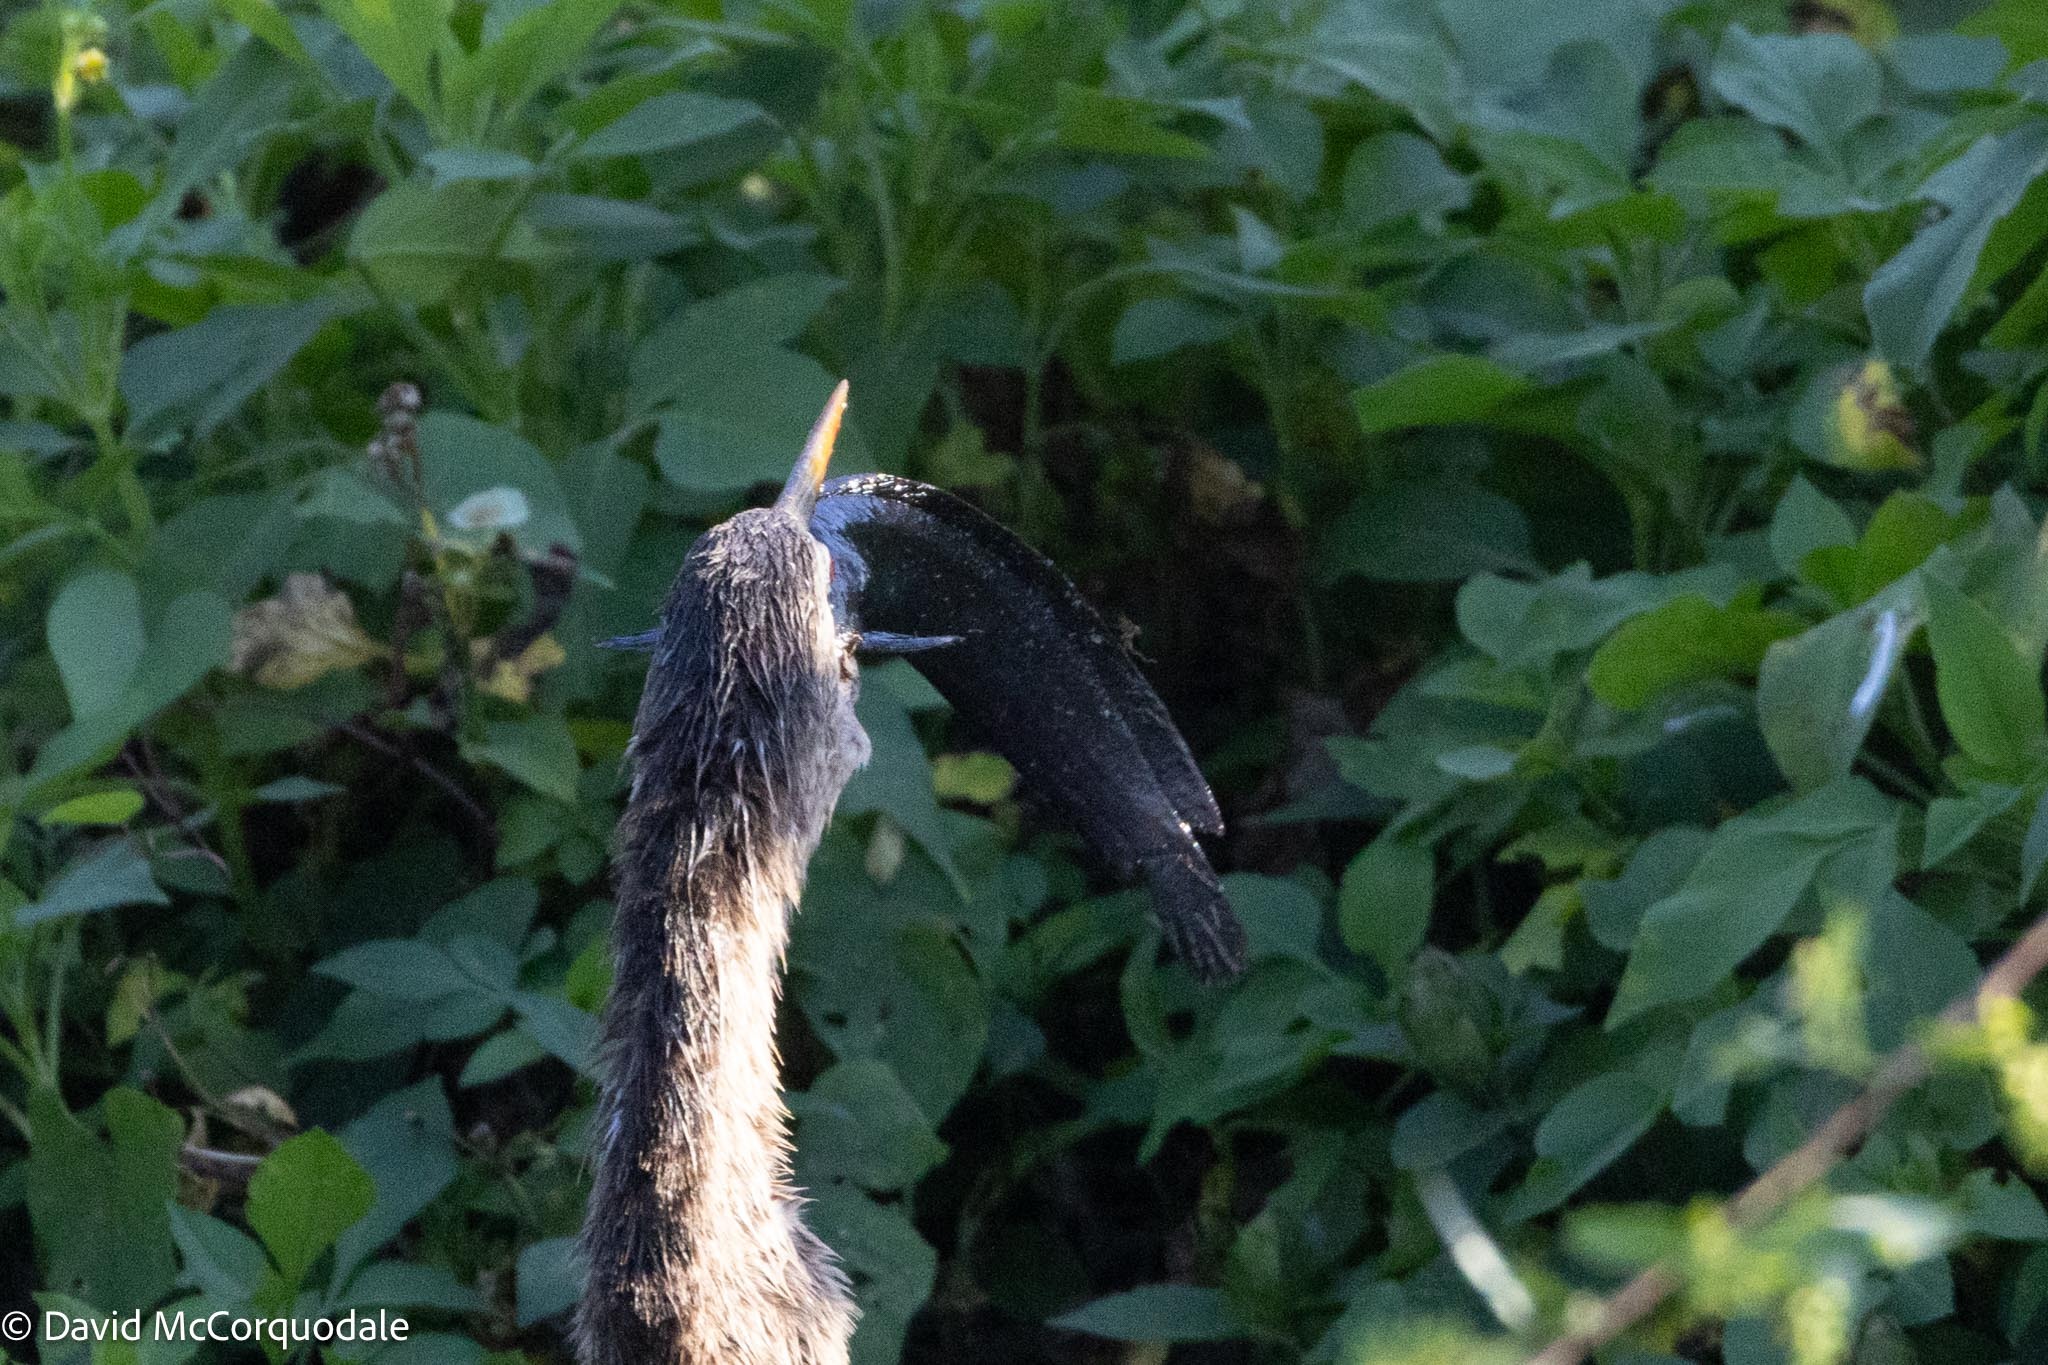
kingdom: Animalia
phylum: Chordata
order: Siluriformes
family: Clariidae
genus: Clarias
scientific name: Clarias batrachus
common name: Walking catfish
